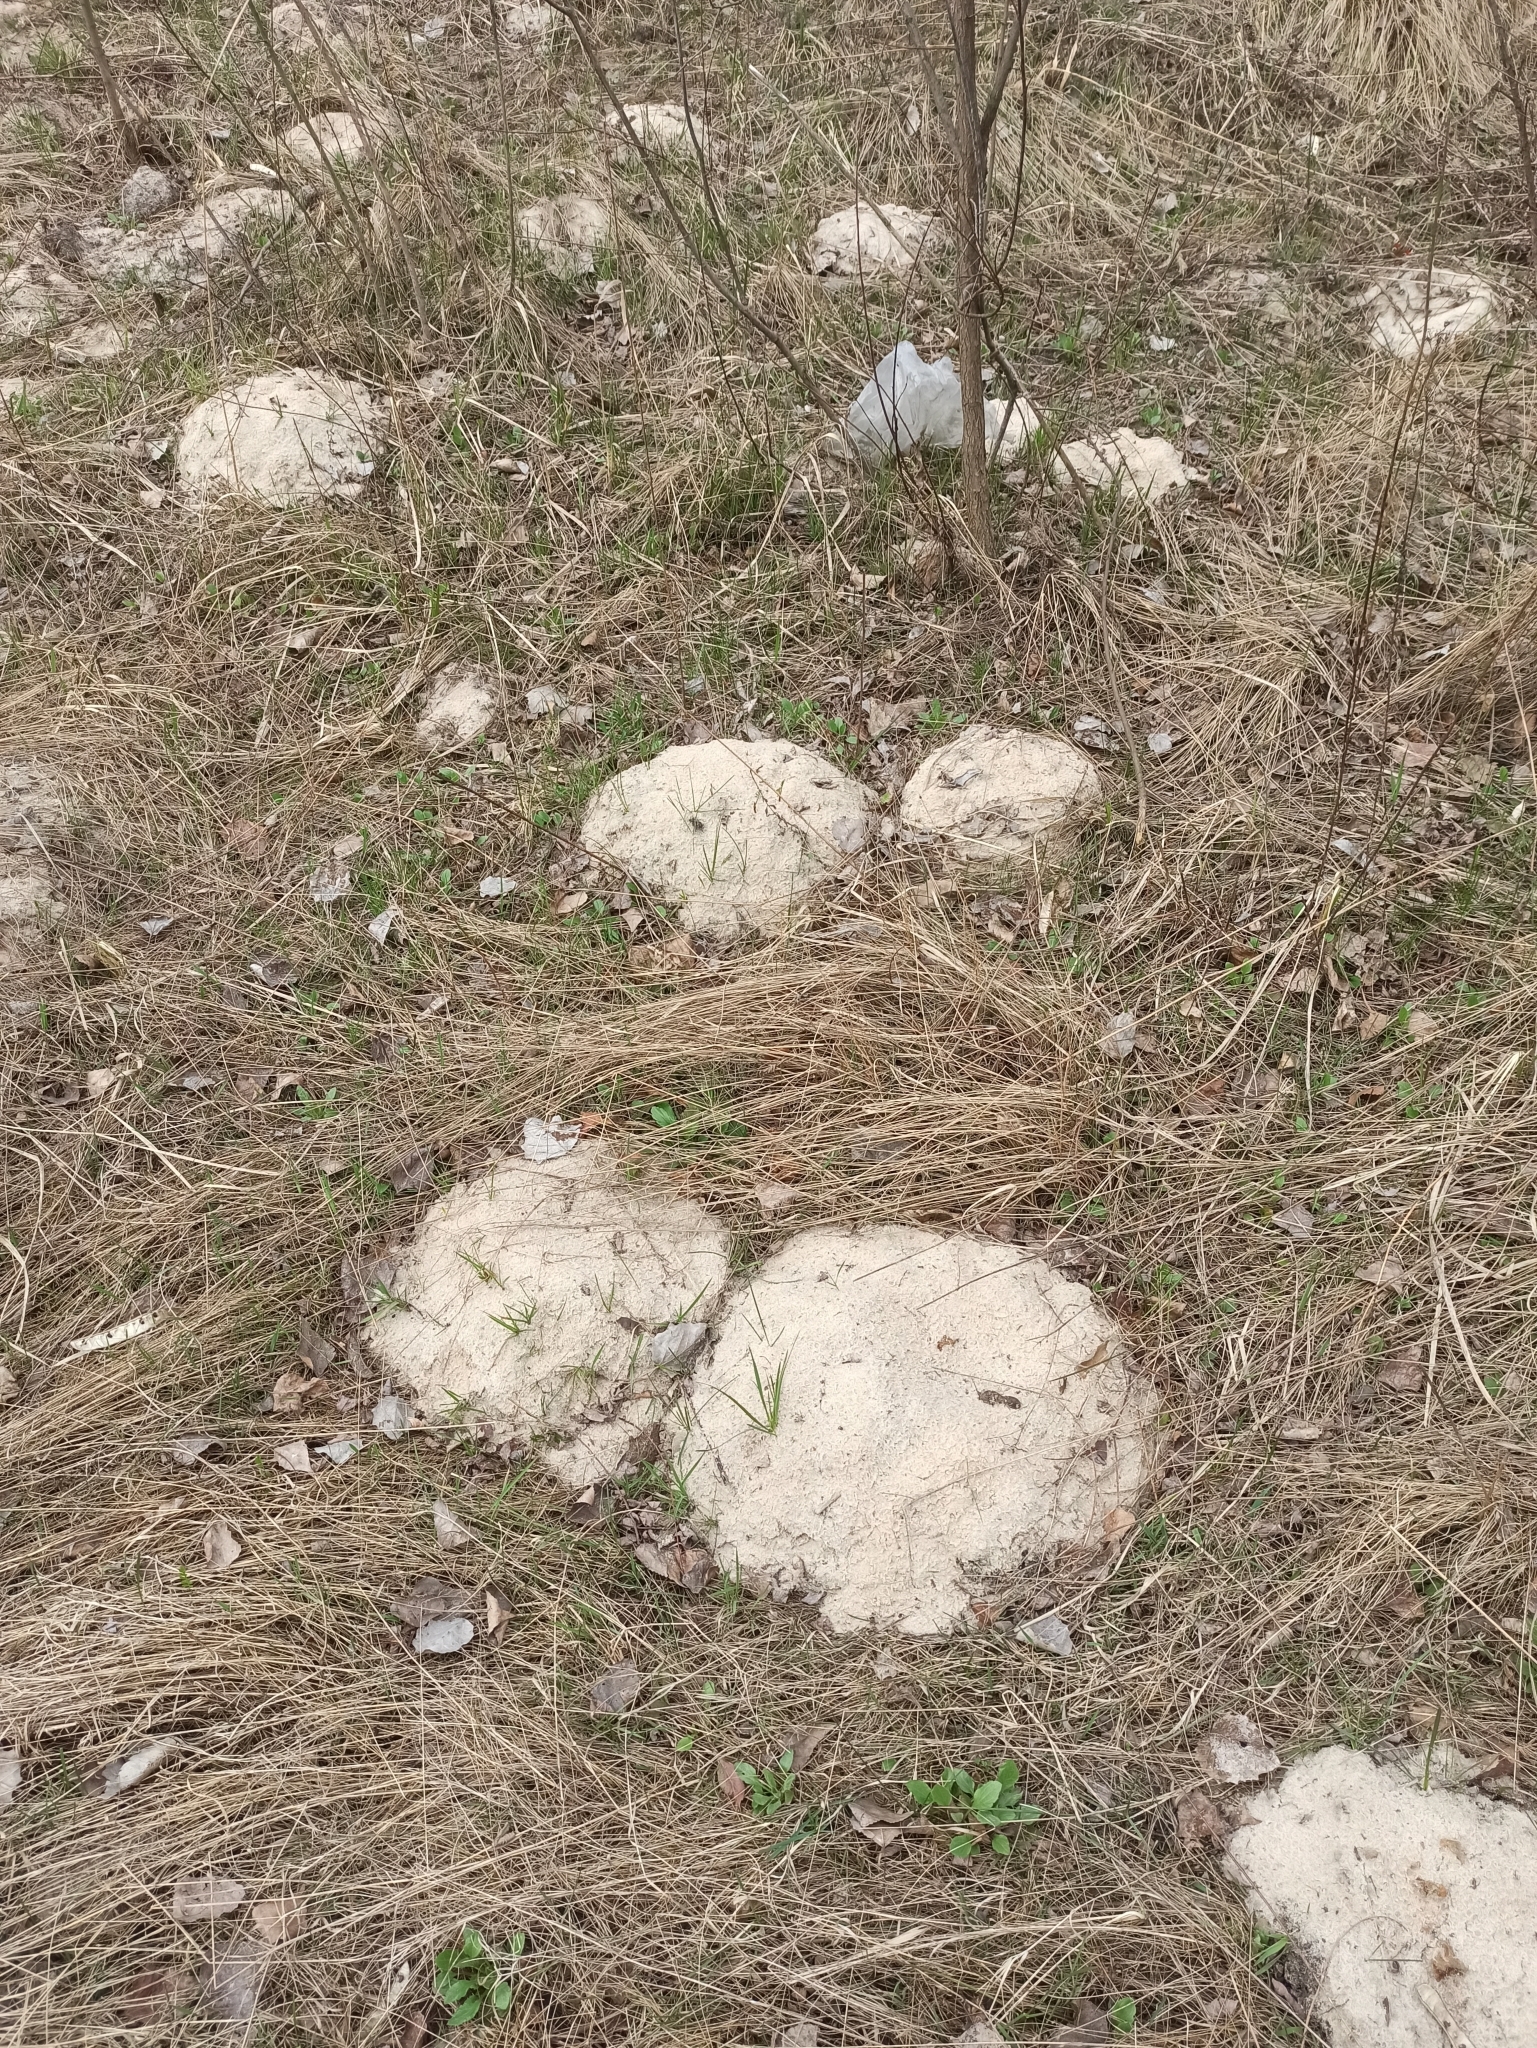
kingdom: Animalia
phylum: Chordata
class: Mammalia
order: Soricomorpha
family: Talpidae
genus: Talpa
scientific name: Talpa europaea
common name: European mole
